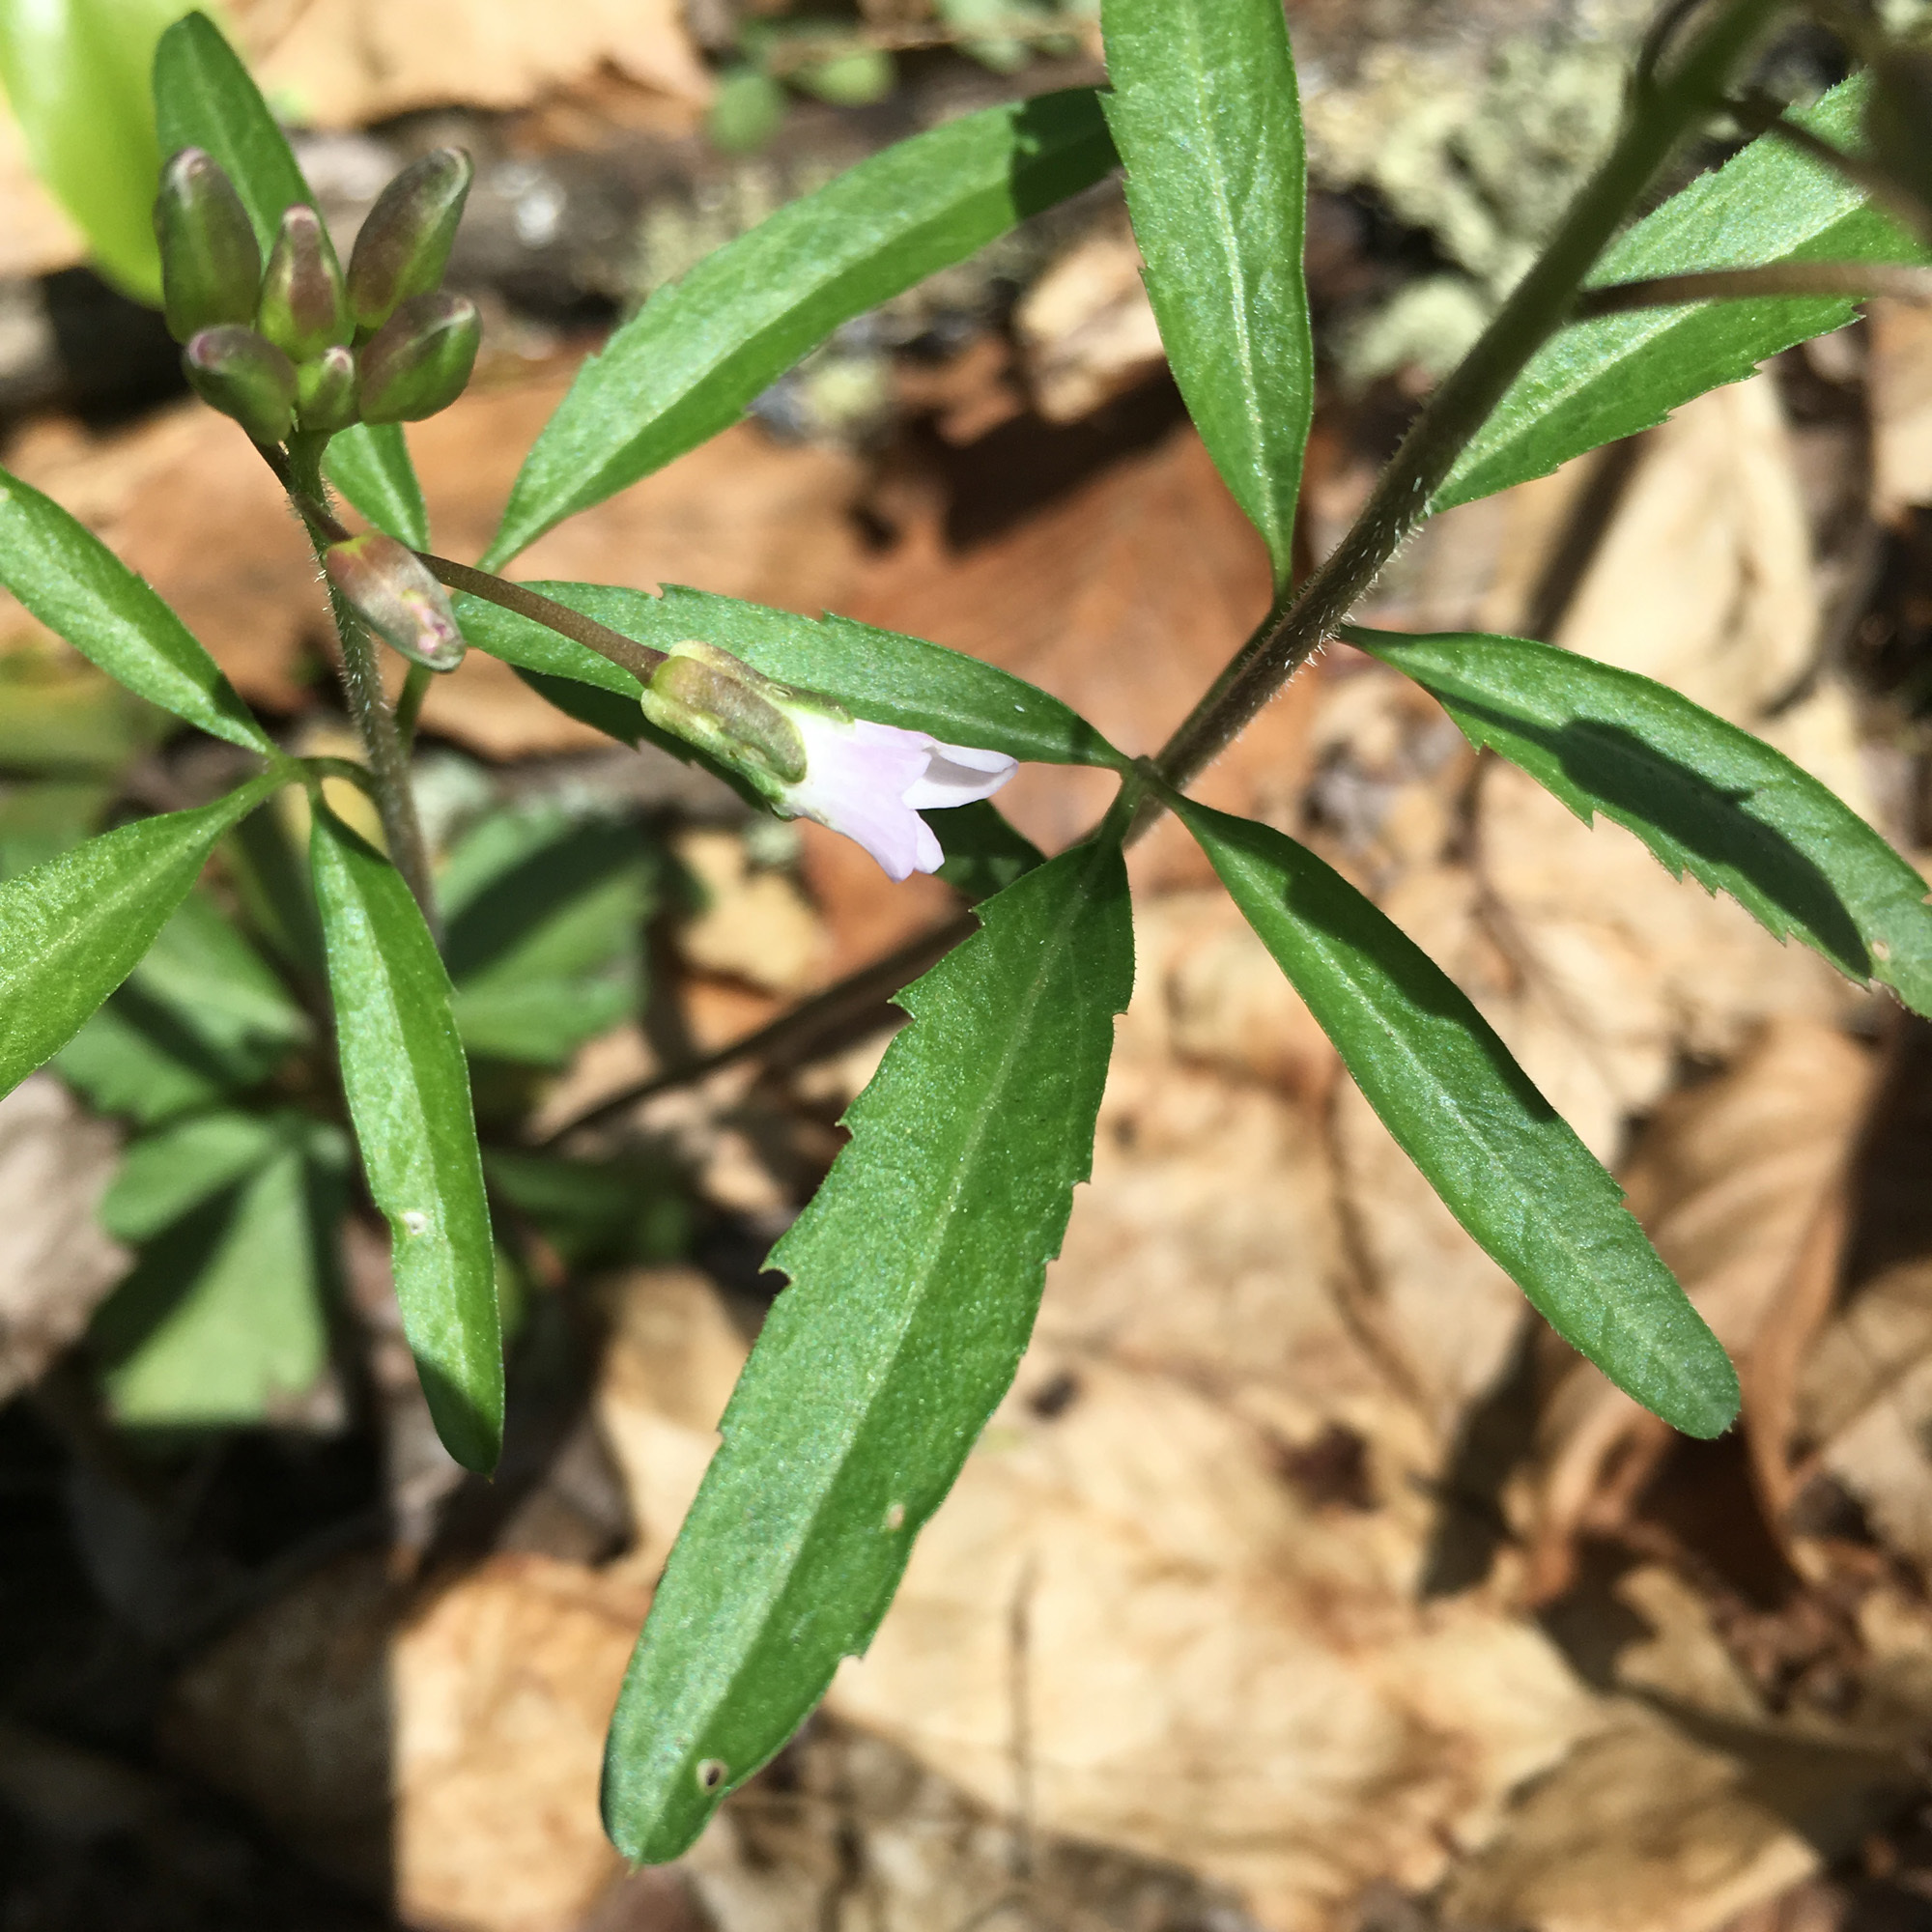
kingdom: Plantae
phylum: Tracheophyta
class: Magnoliopsida
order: Brassicales
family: Brassicaceae
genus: Cardamine
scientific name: Cardamine angustata
